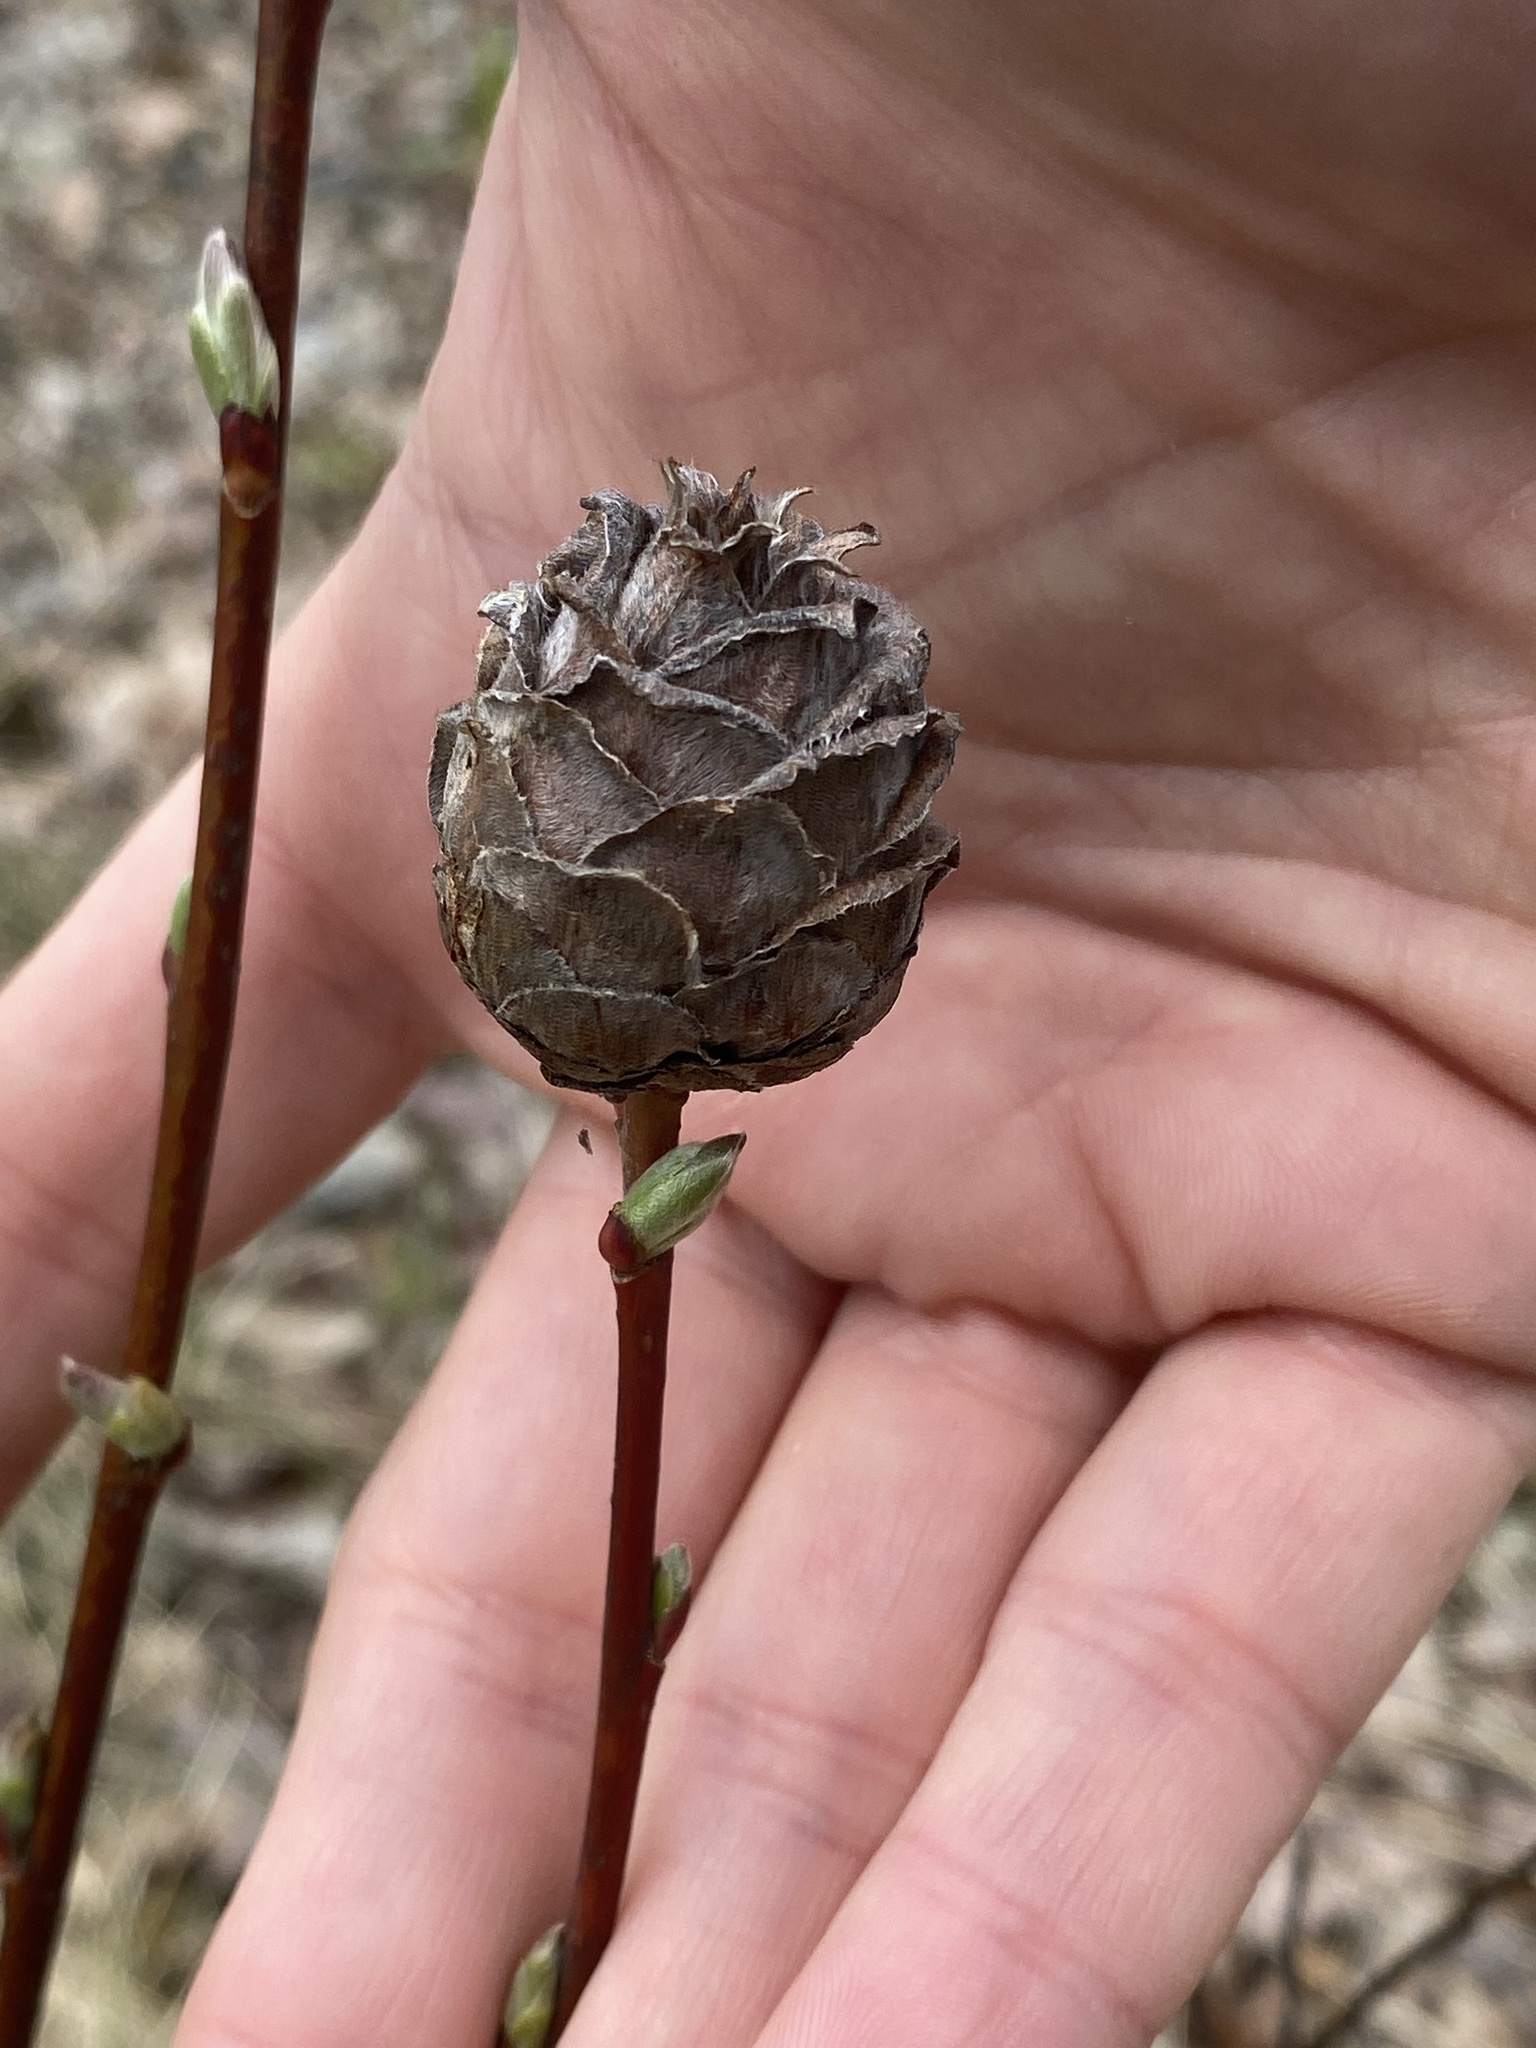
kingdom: Animalia
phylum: Arthropoda
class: Insecta
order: Diptera
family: Cecidomyiidae
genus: Rabdophaga
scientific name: Rabdophaga strobiloides
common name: Willow pinecone gall midge
